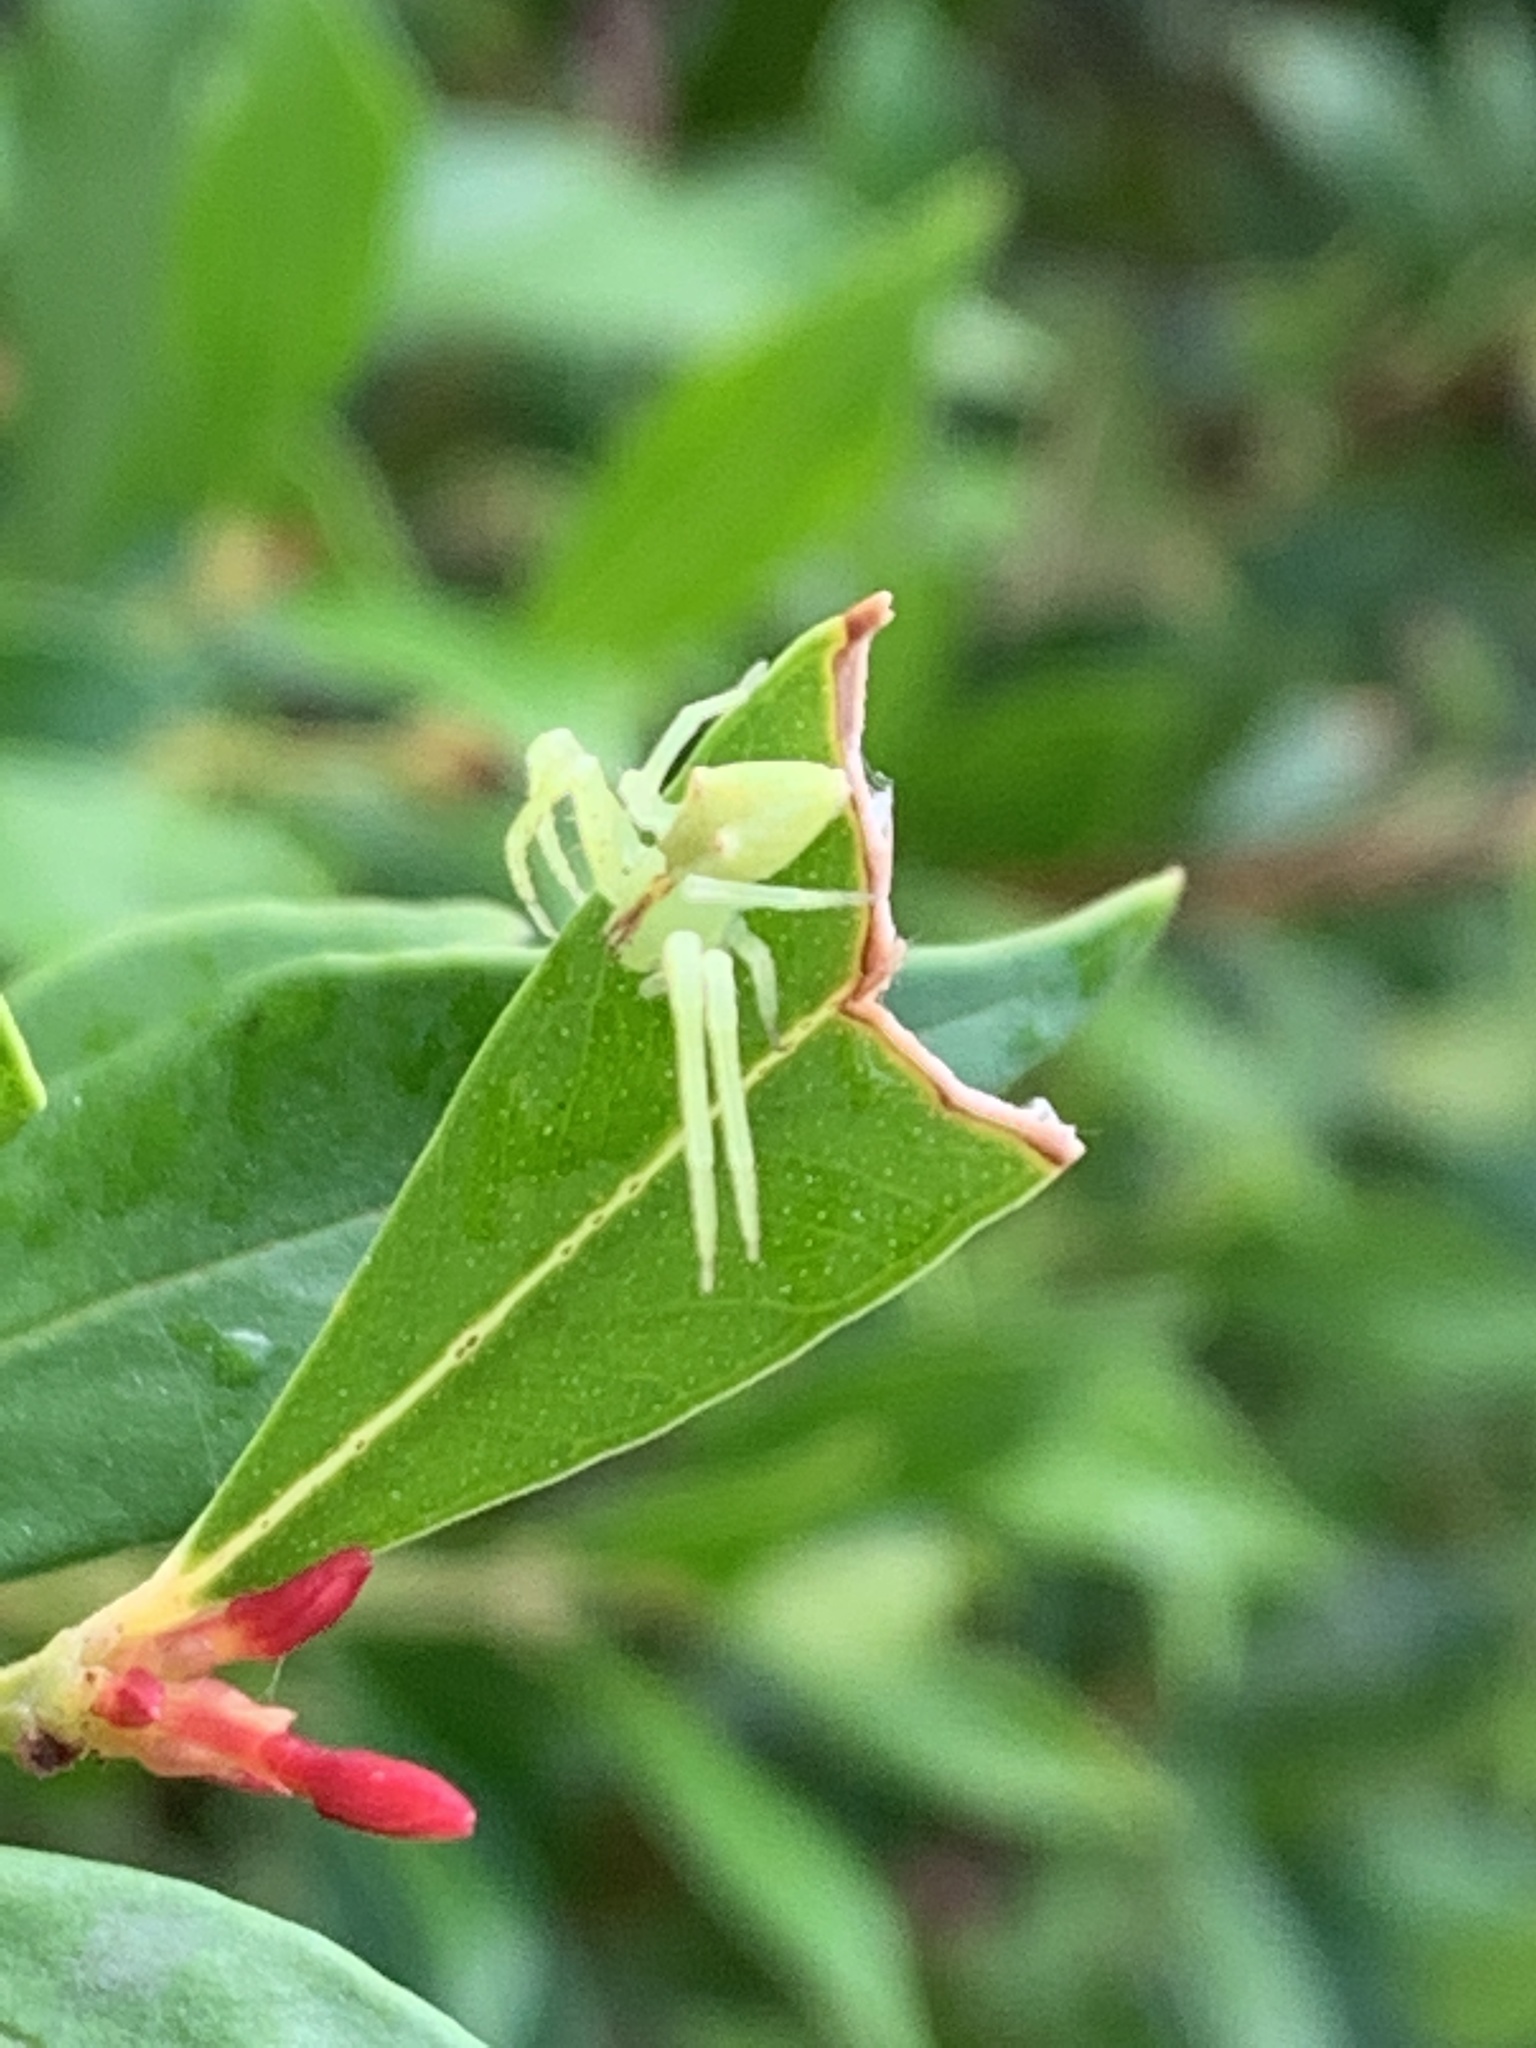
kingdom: Animalia
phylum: Arthropoda
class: Arachnida
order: Araneae
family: Thomisidae
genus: Sidymella
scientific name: Sidymella rubrosignata
